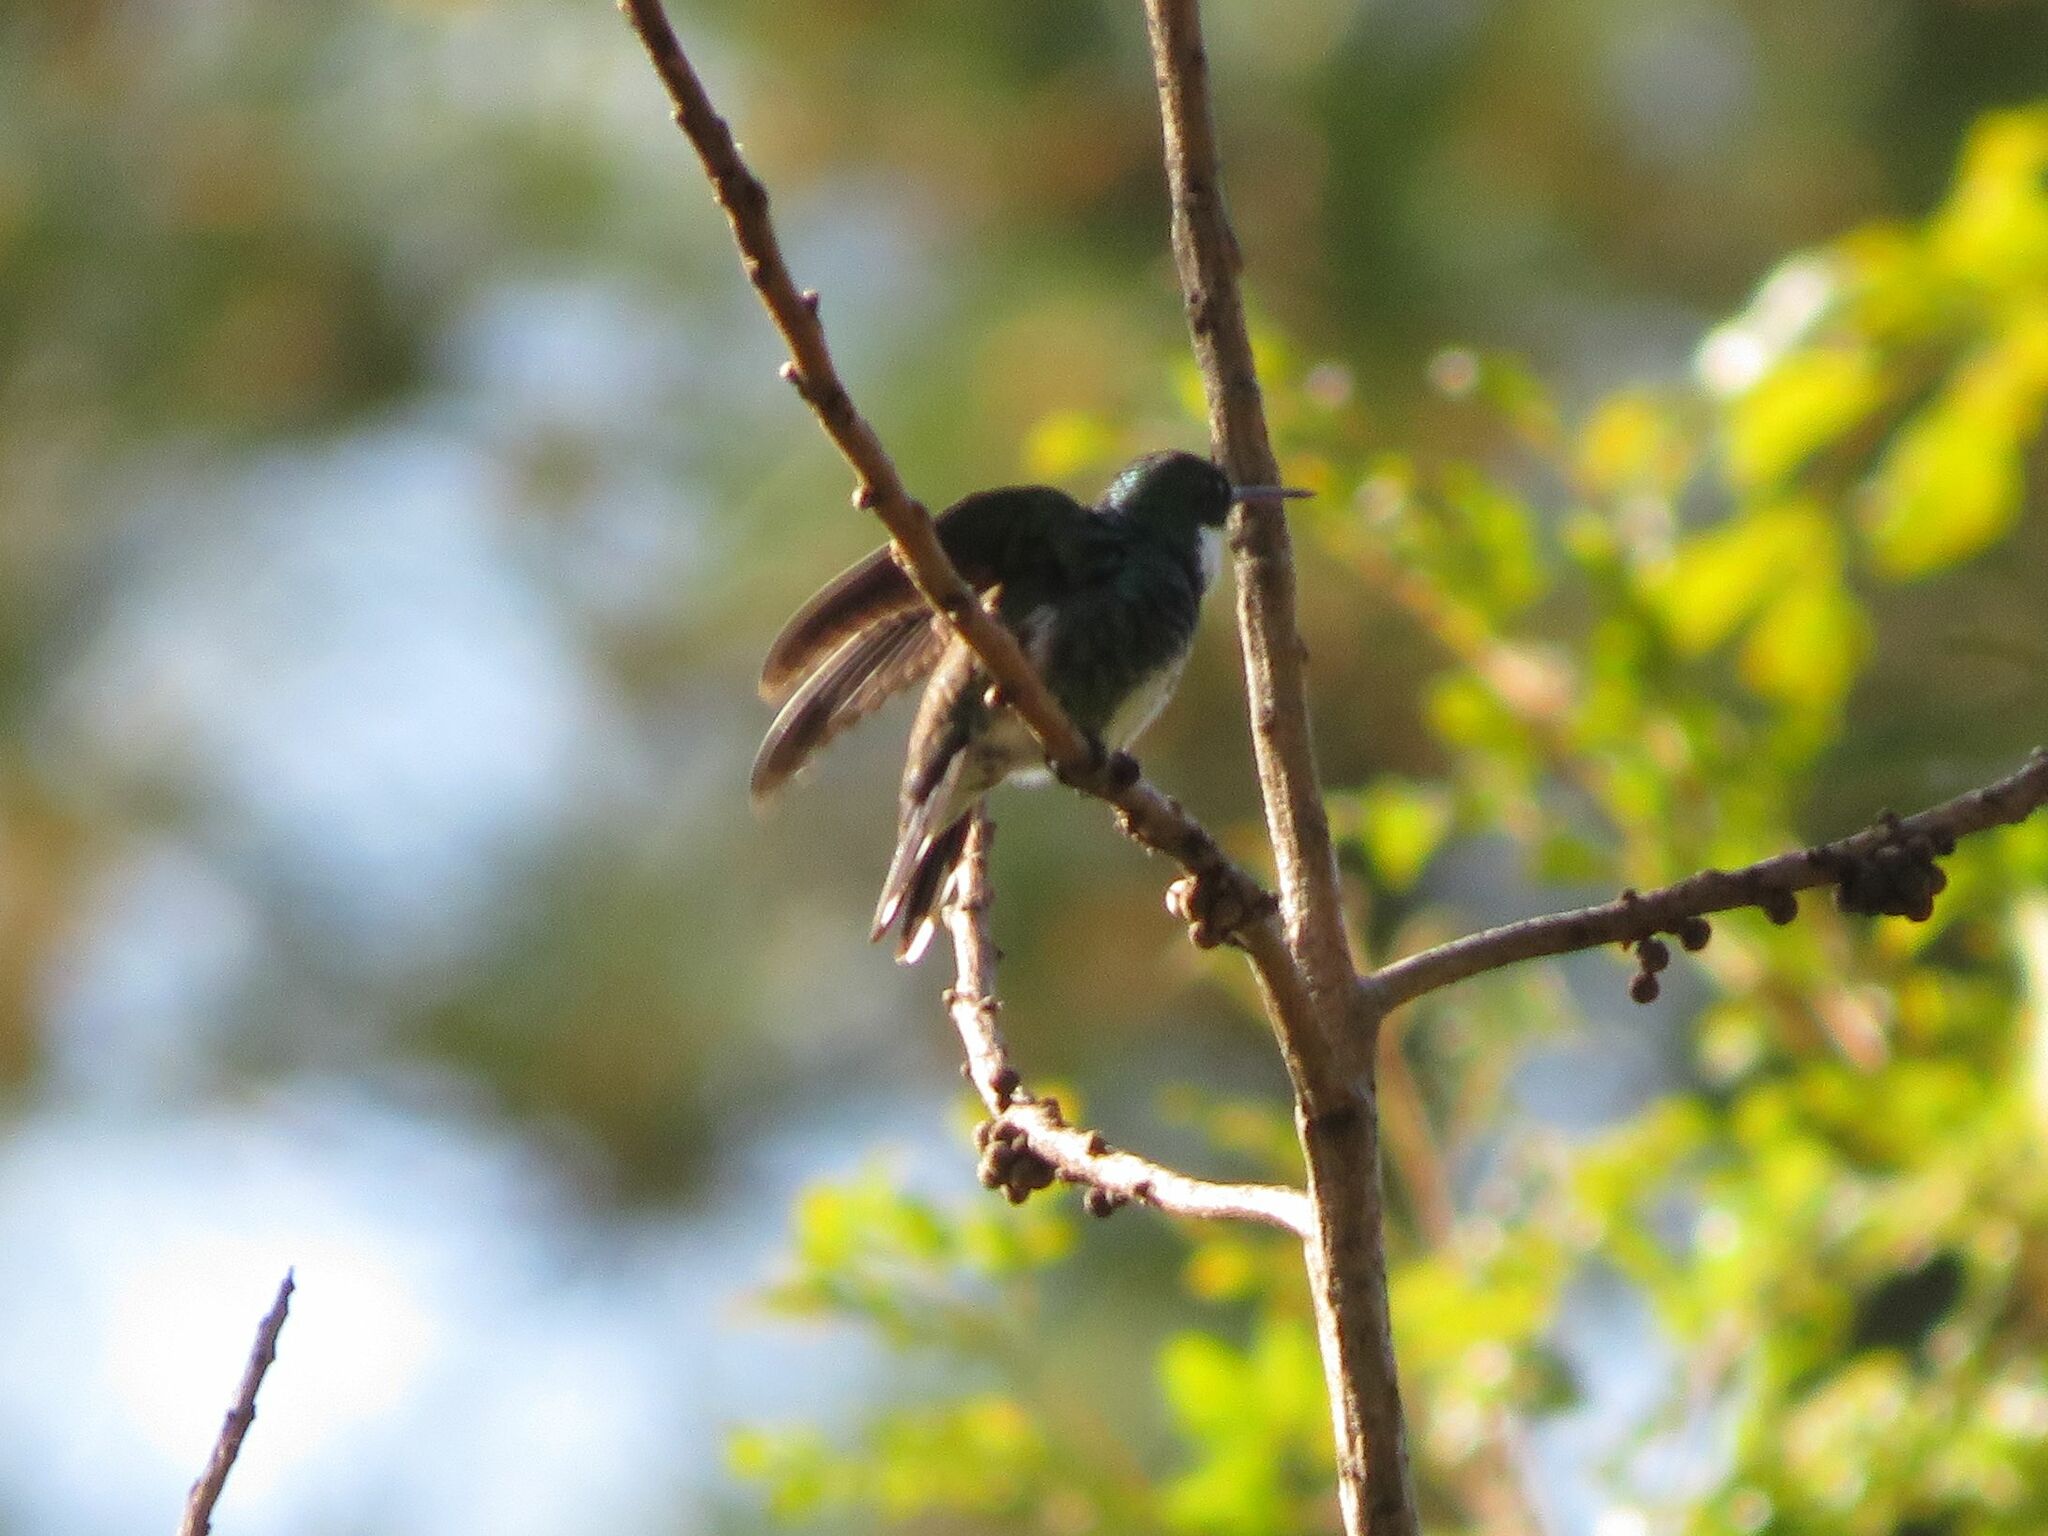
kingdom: Animalia
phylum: Chordata
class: Aves
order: Apodiformes
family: Trochilidae
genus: Leucochloris
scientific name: Leucochloris albicollis
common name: White-throated hummingbird
